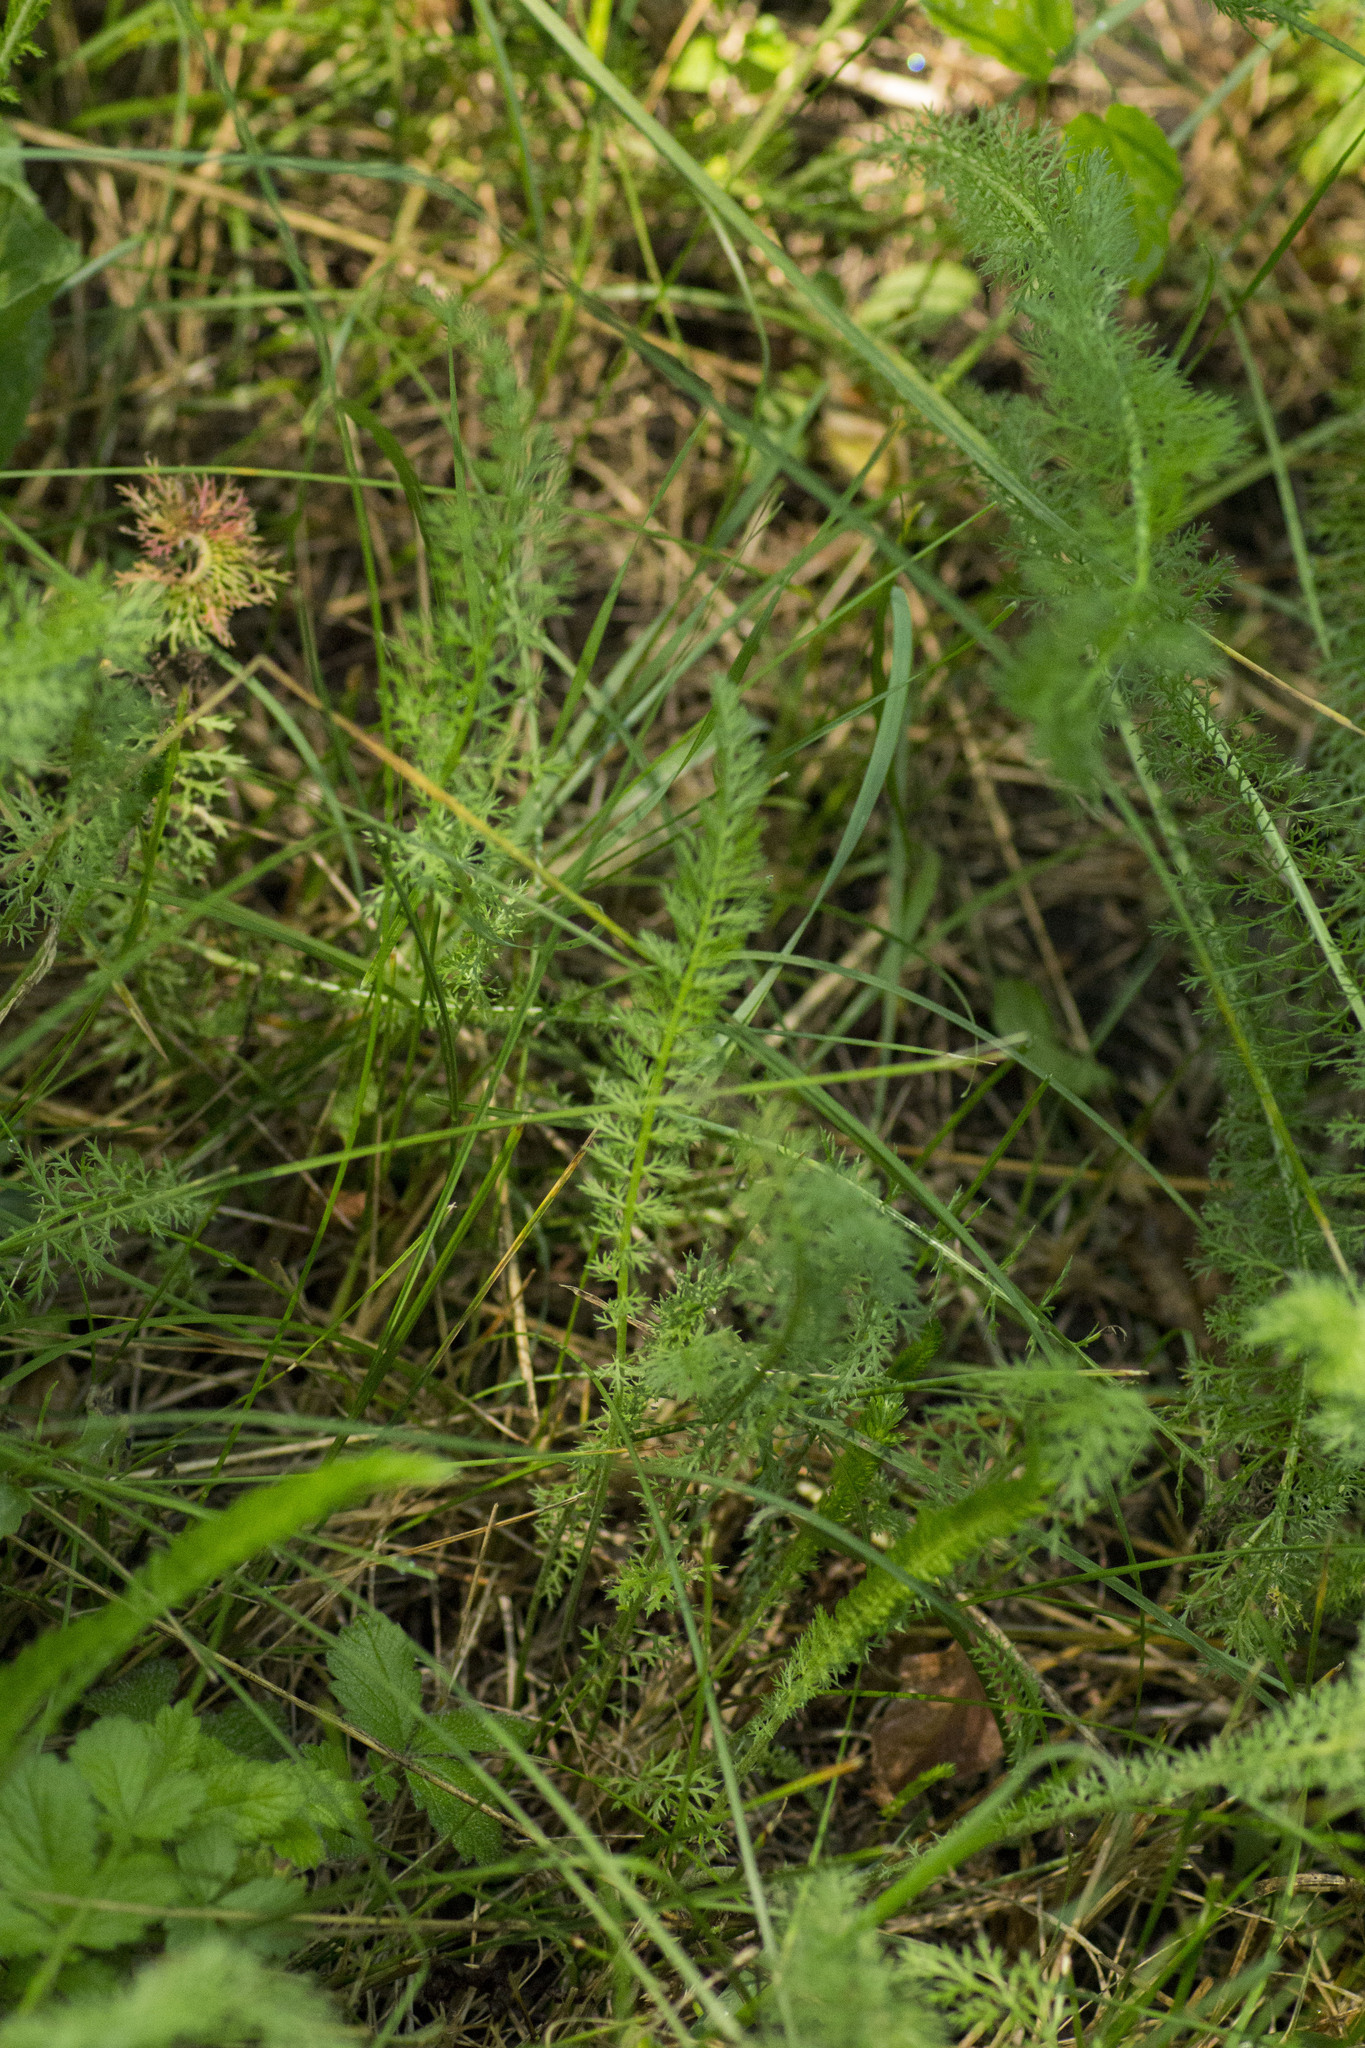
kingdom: Plantae
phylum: Tracheophyta
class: Magnoliopsida
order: Asterales
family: Asteraceae
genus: Achillea
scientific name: Achillea millefolium
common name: Yarrow
